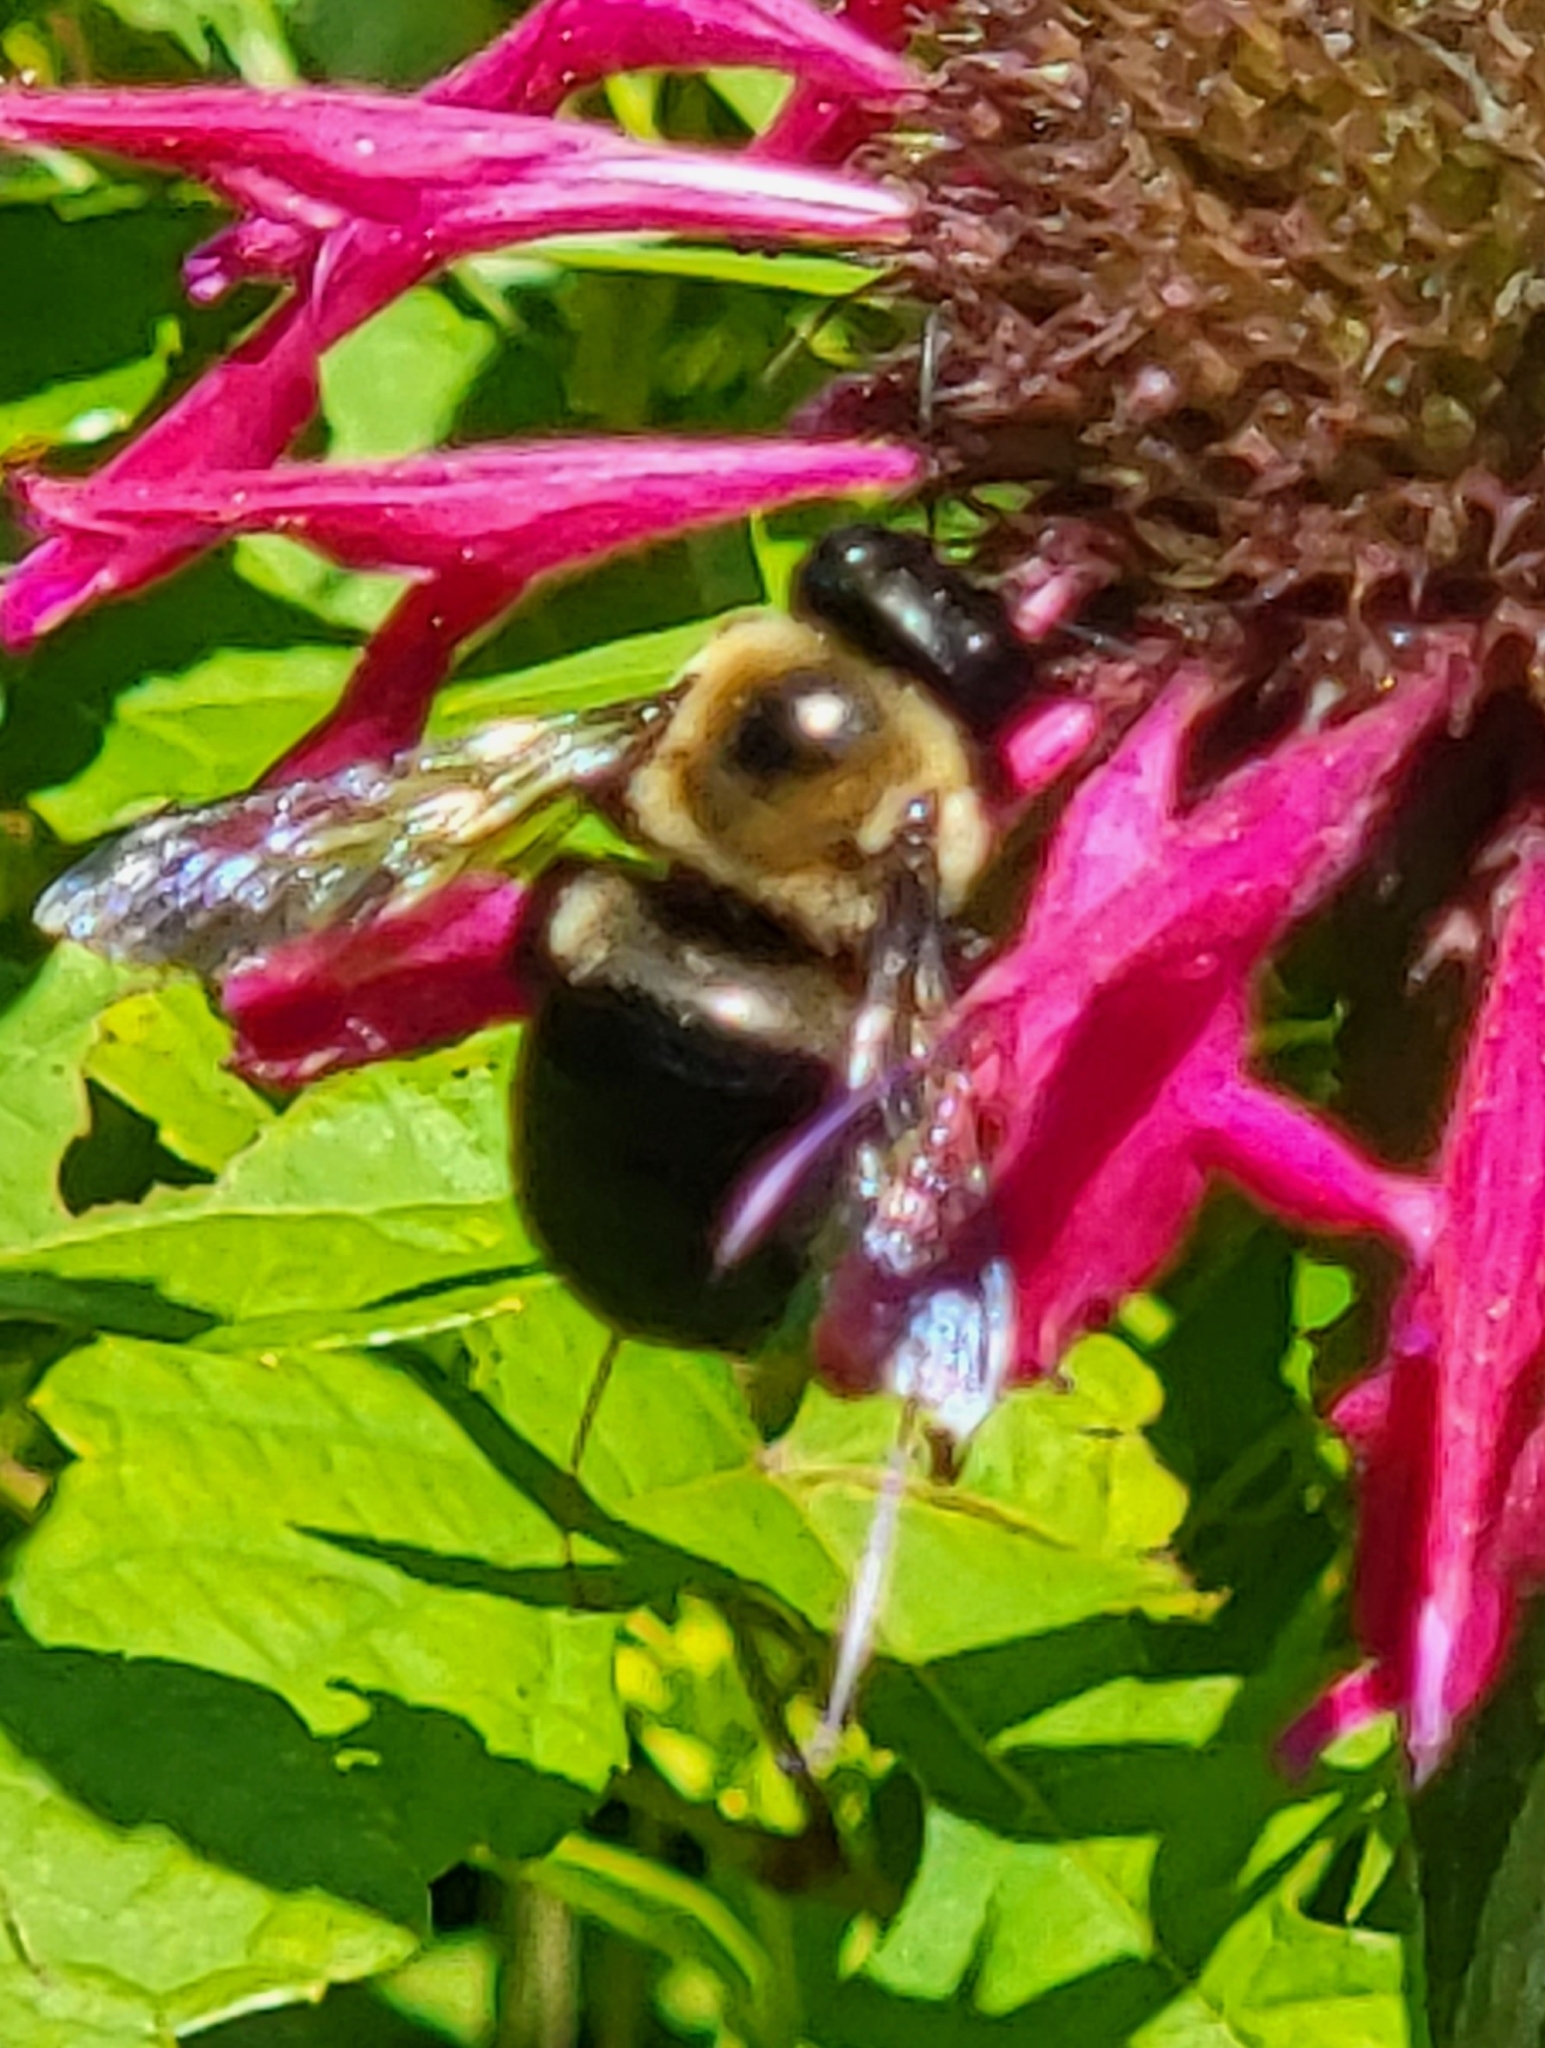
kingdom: Animalia
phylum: Arthropoda
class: Insecta
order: Hymenoptera
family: Apidae
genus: Xylocopa
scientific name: Xylocopa virginica
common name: Carpenter bee
